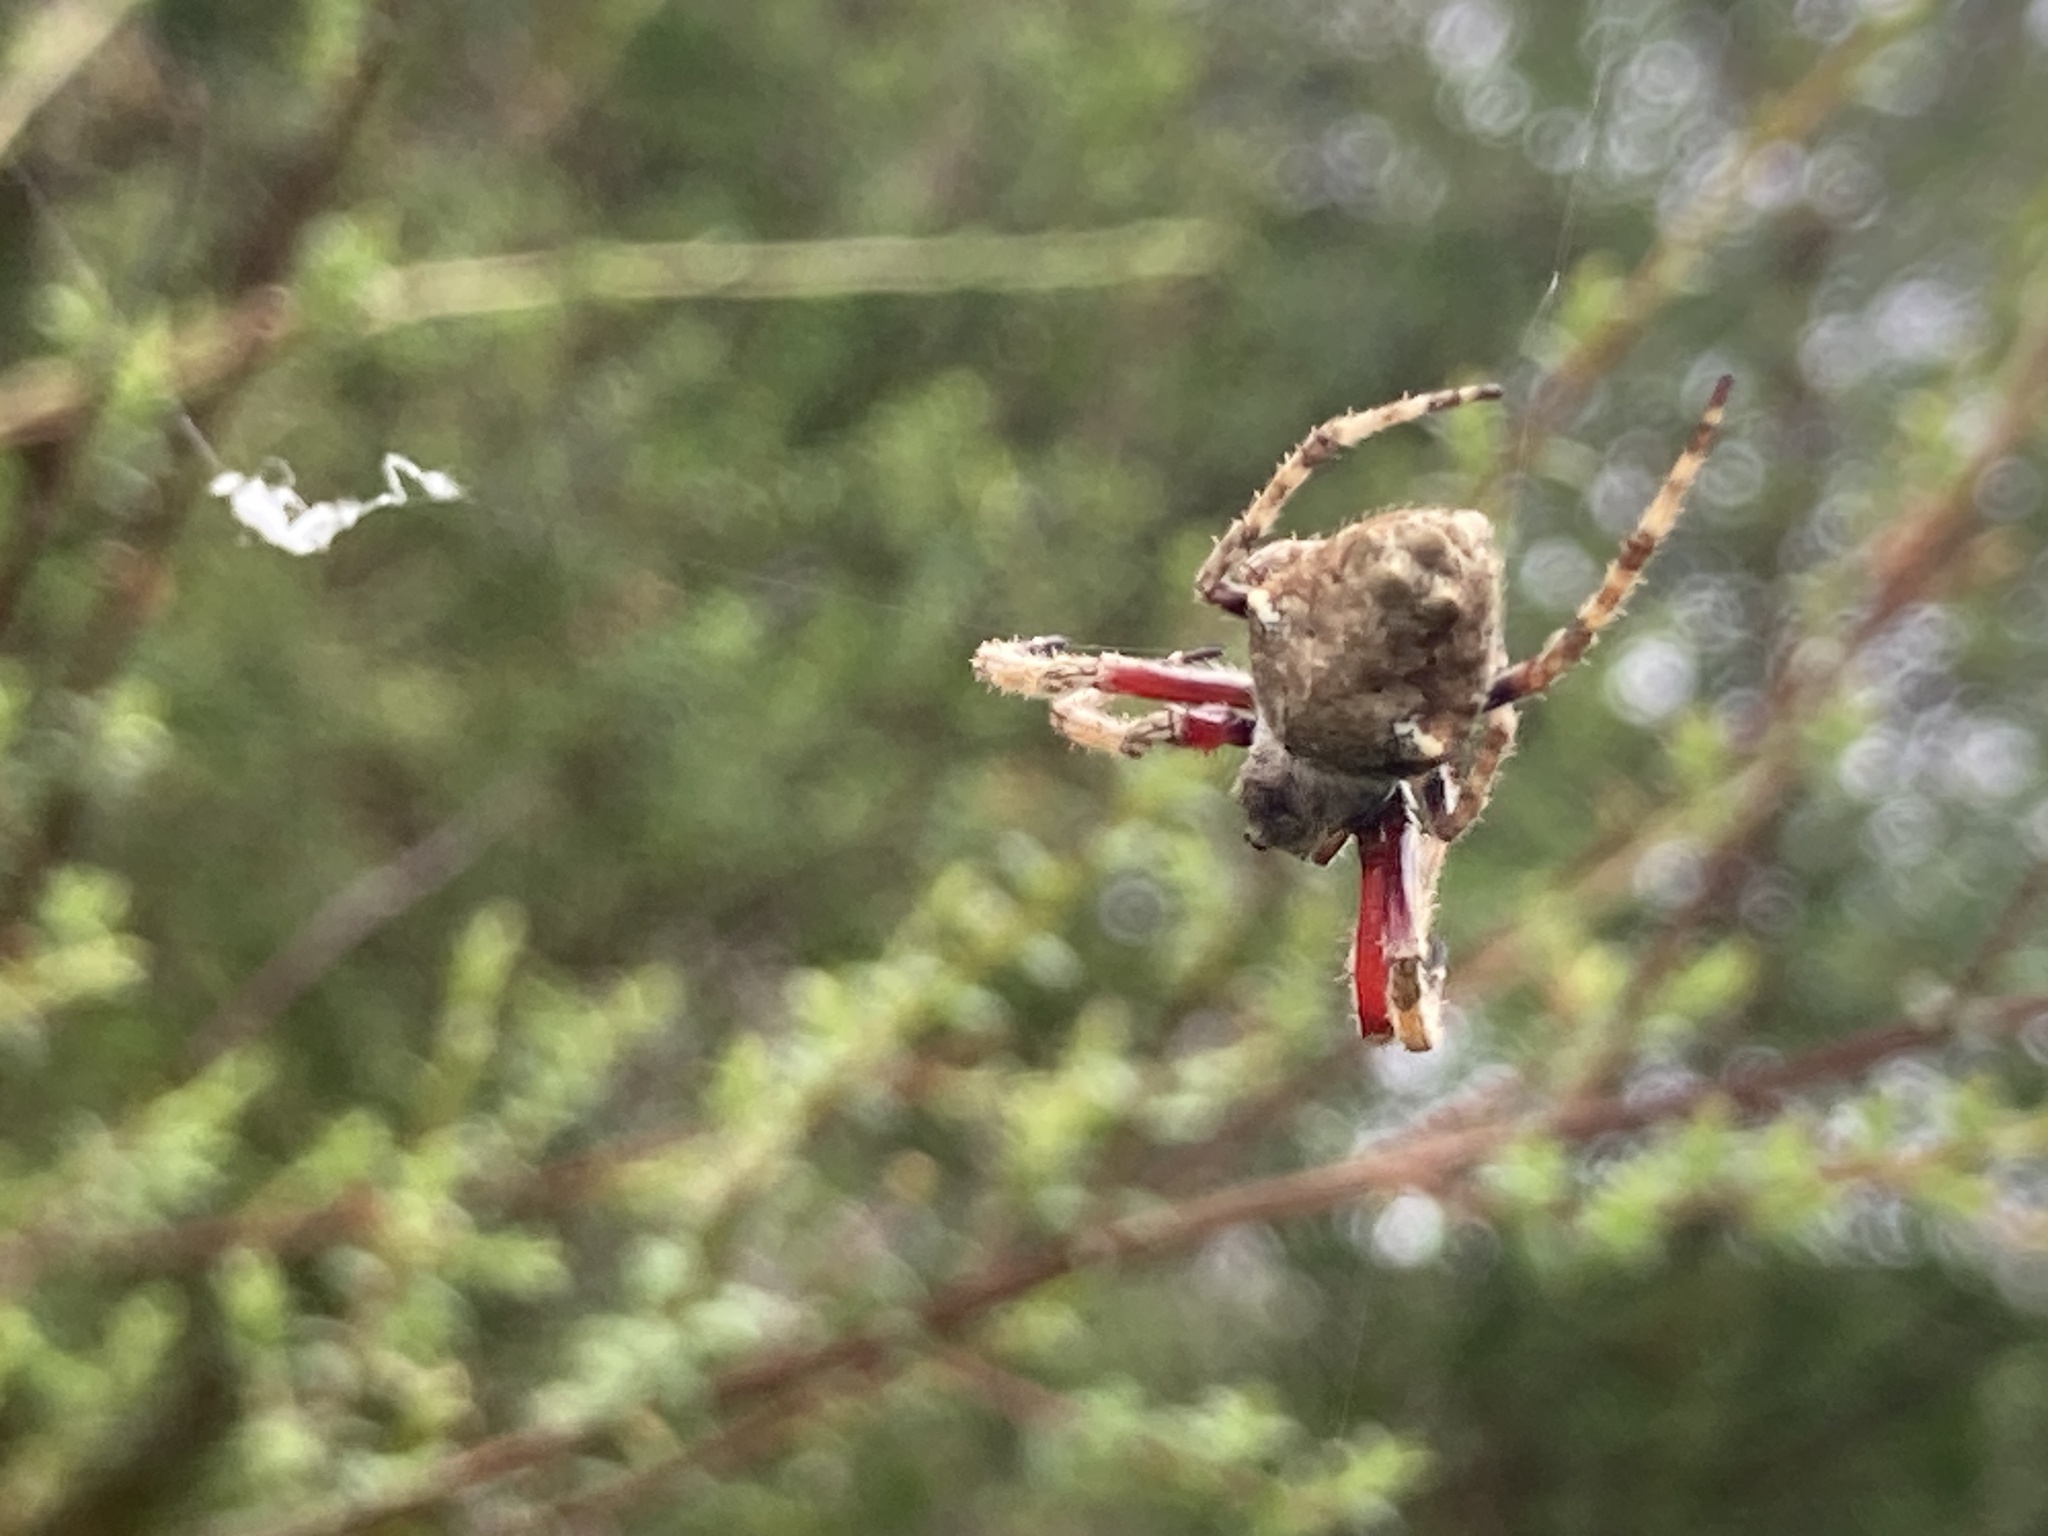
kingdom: Animalia
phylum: Arthropoda
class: Arachnida
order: Araneae
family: Araneidae
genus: Eriophora
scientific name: Eriophora pustulosa
